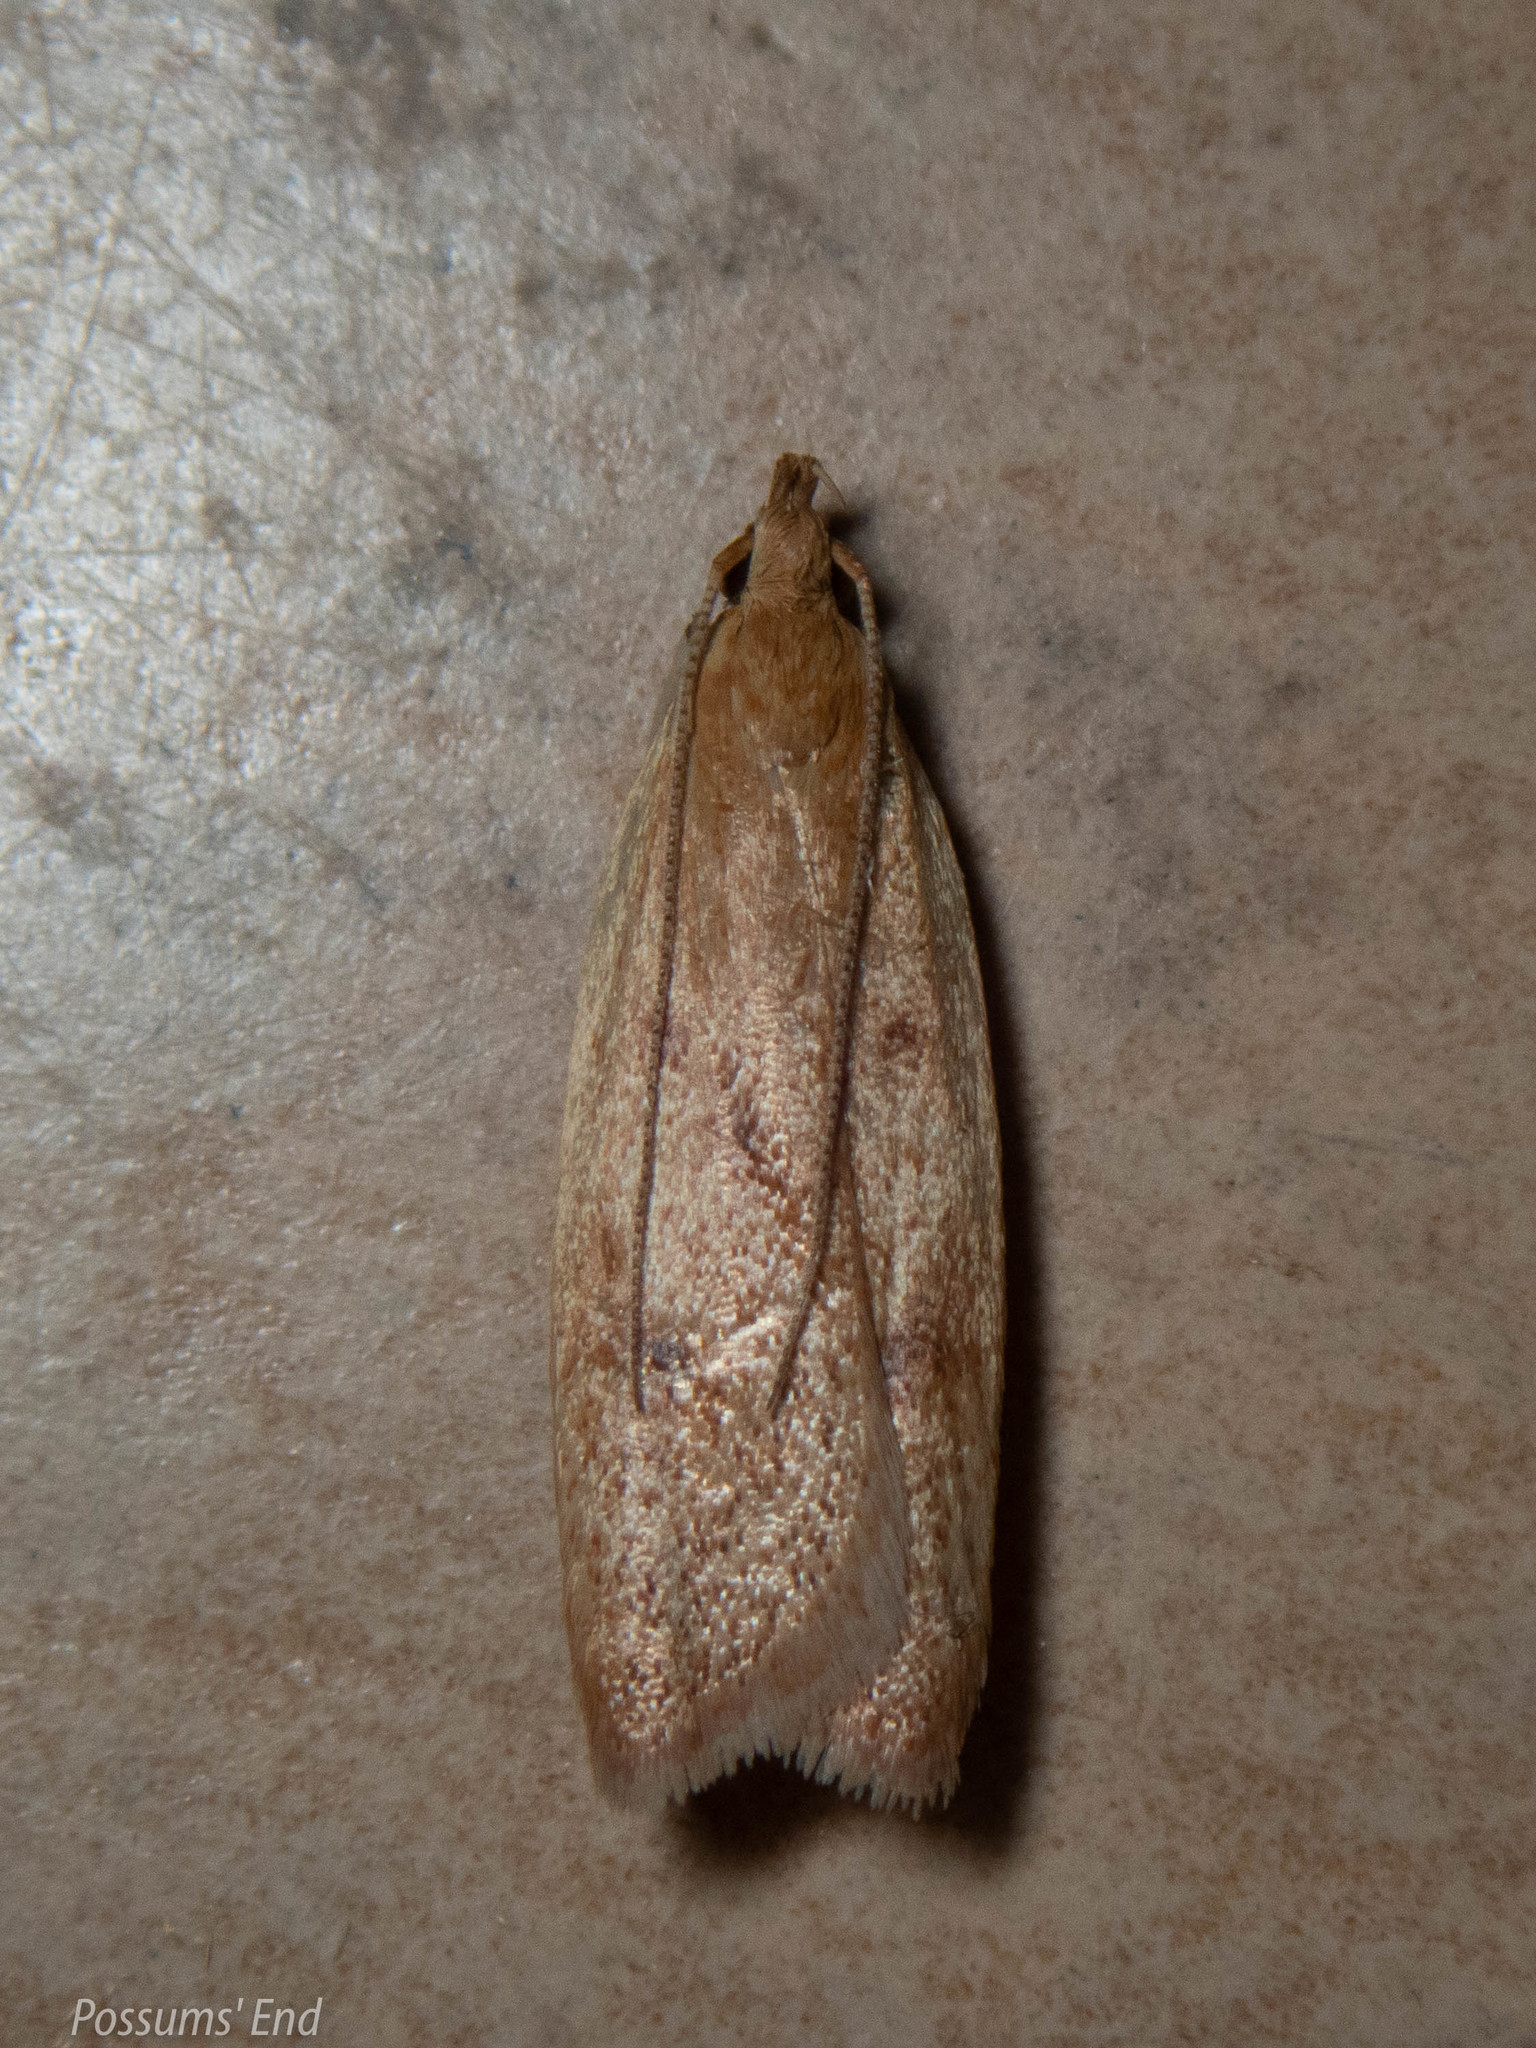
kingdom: Animalia
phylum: Arthropoda
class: Insecta
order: Lepidoptera
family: Oecophoridae
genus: Gymnobathra
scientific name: Gymnobathra sarcoxantha
